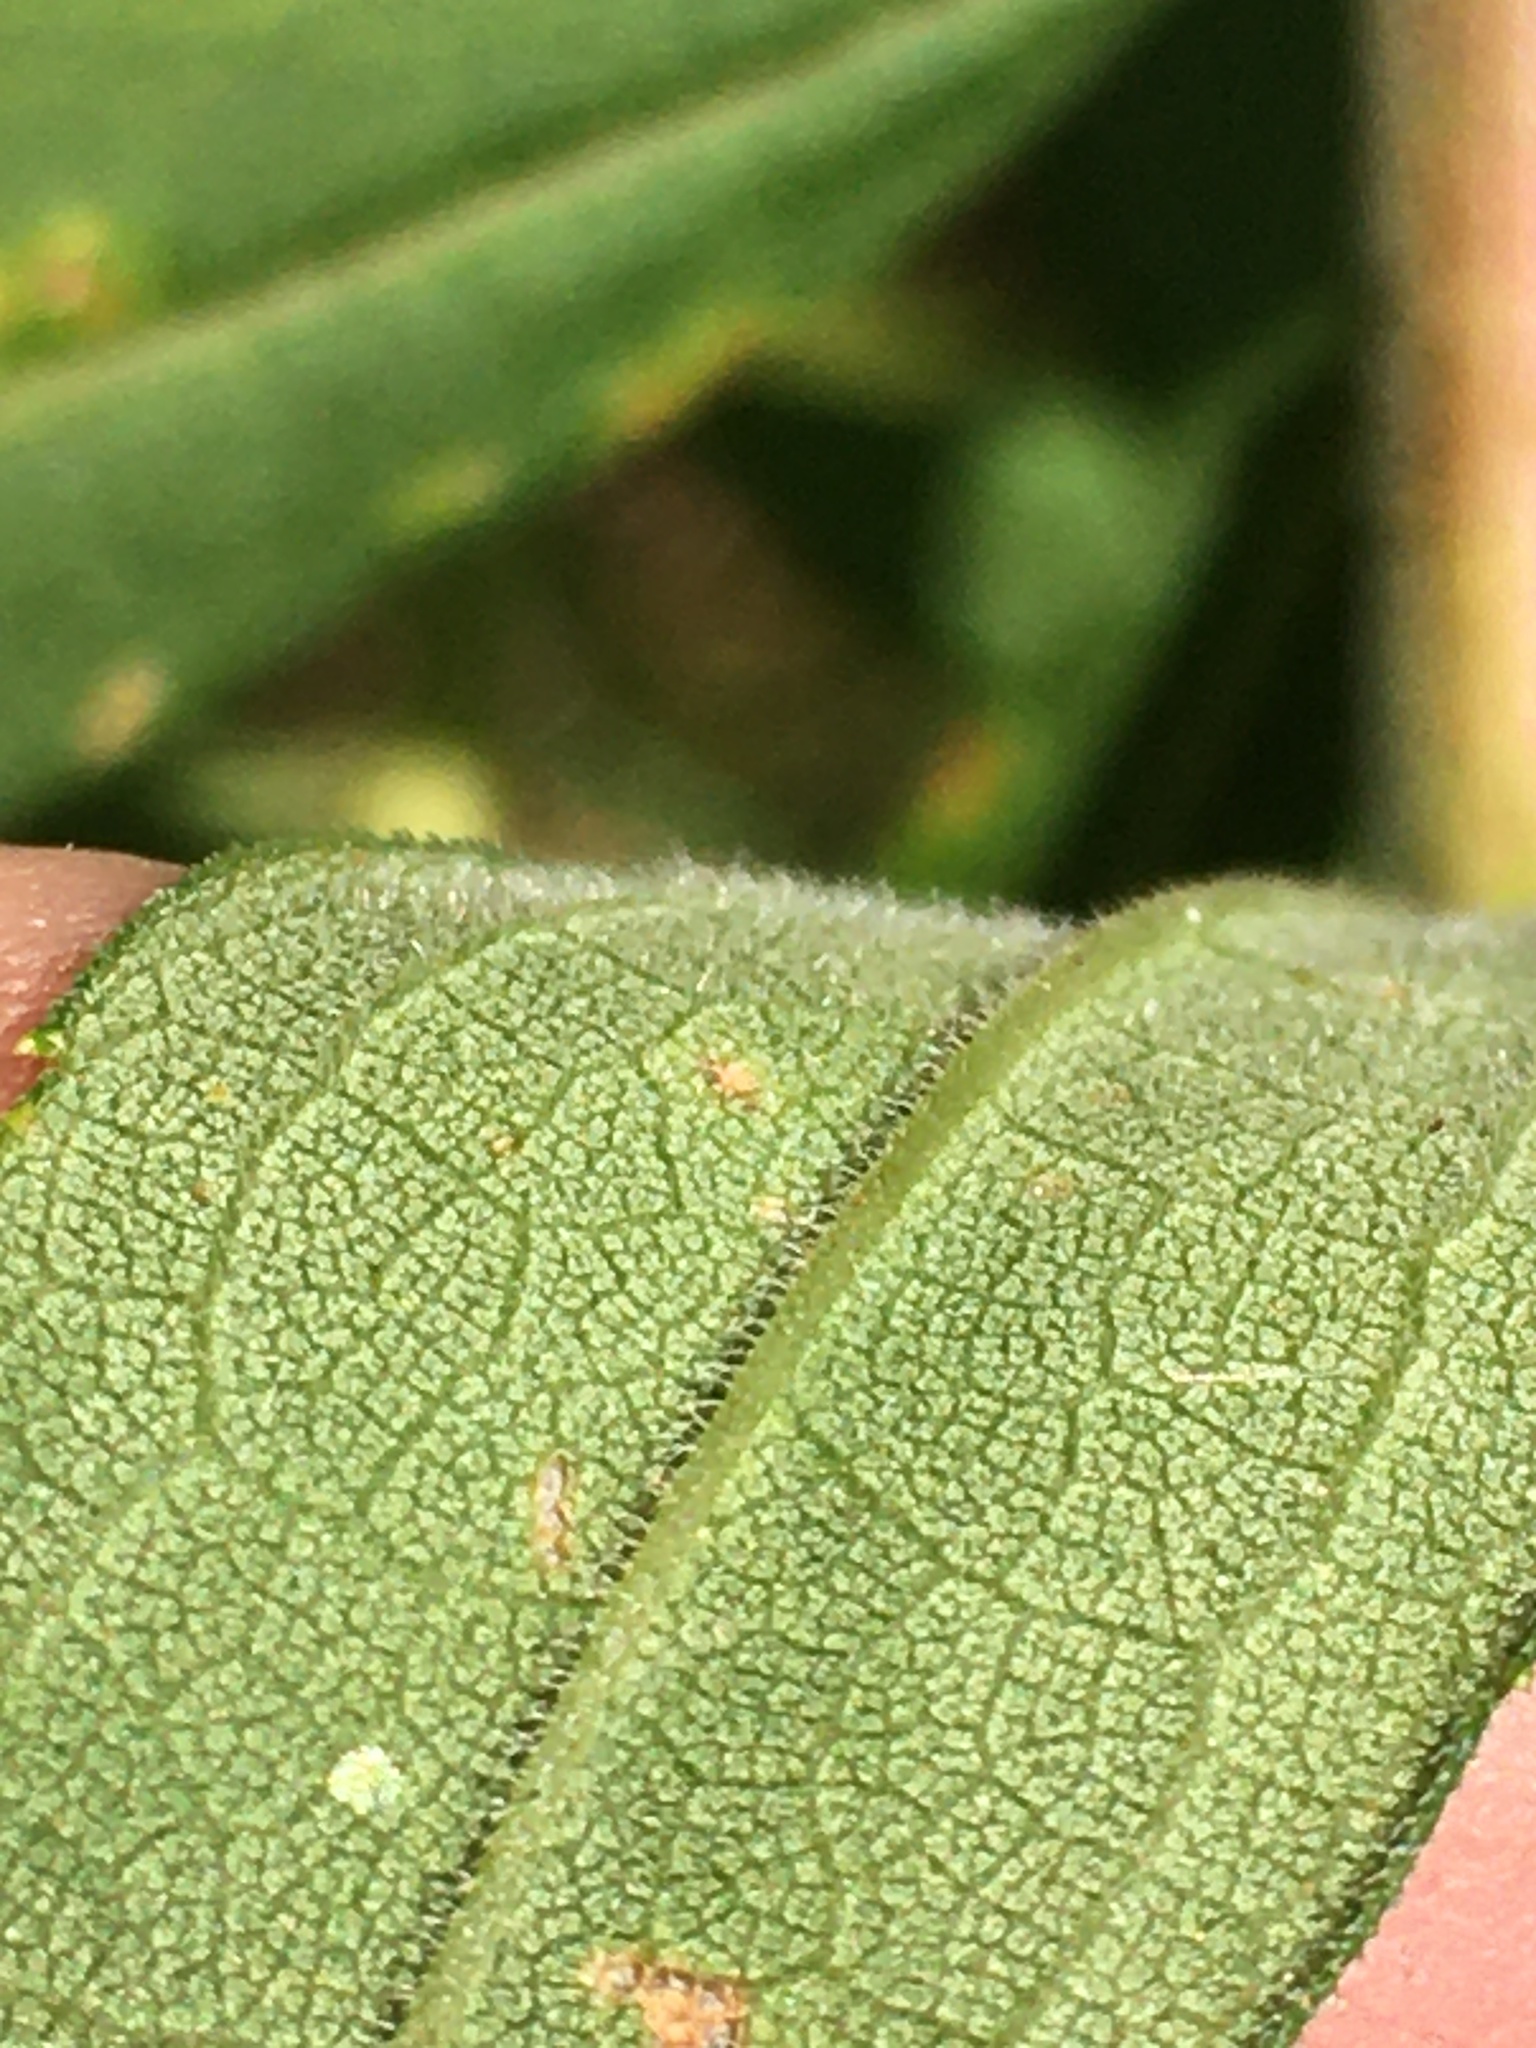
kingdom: Plantae
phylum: Tracheophyta
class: Magnoliopsida
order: Asterales
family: Asteraceae
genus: Solidago
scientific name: Solidago altissima
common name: Late goldenrod
